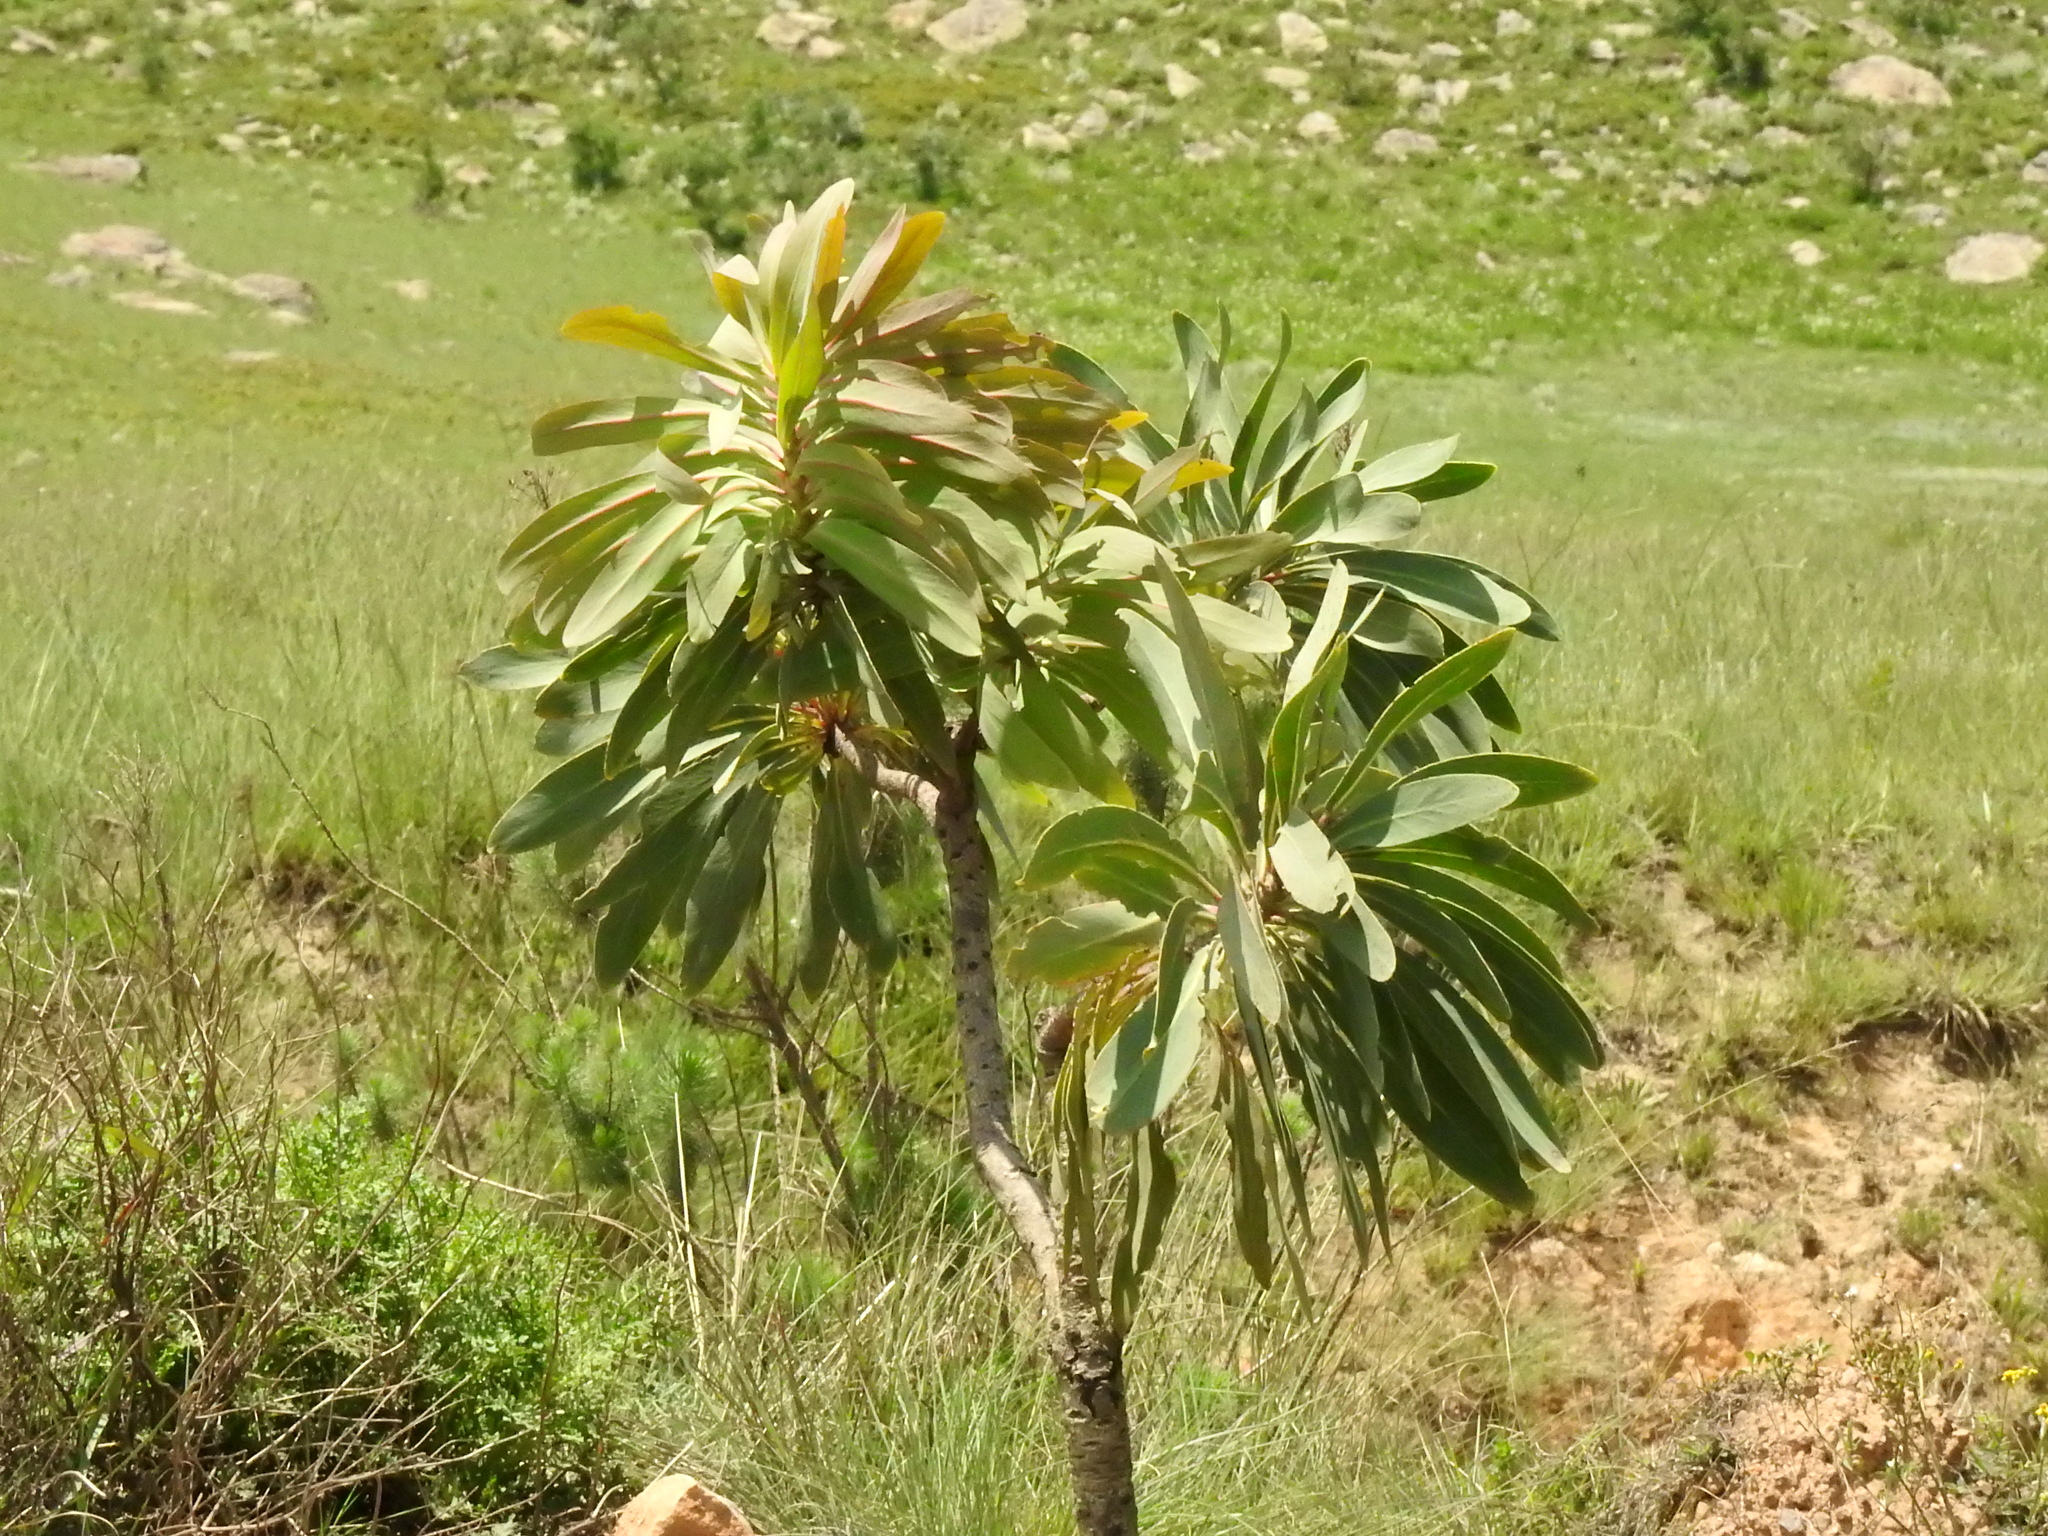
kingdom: Plantae
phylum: Tracheophyta
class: Magnoliopsida
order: Proteales
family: Proteaceae
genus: Protea
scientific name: Protea caffra
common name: Common sugarbush
